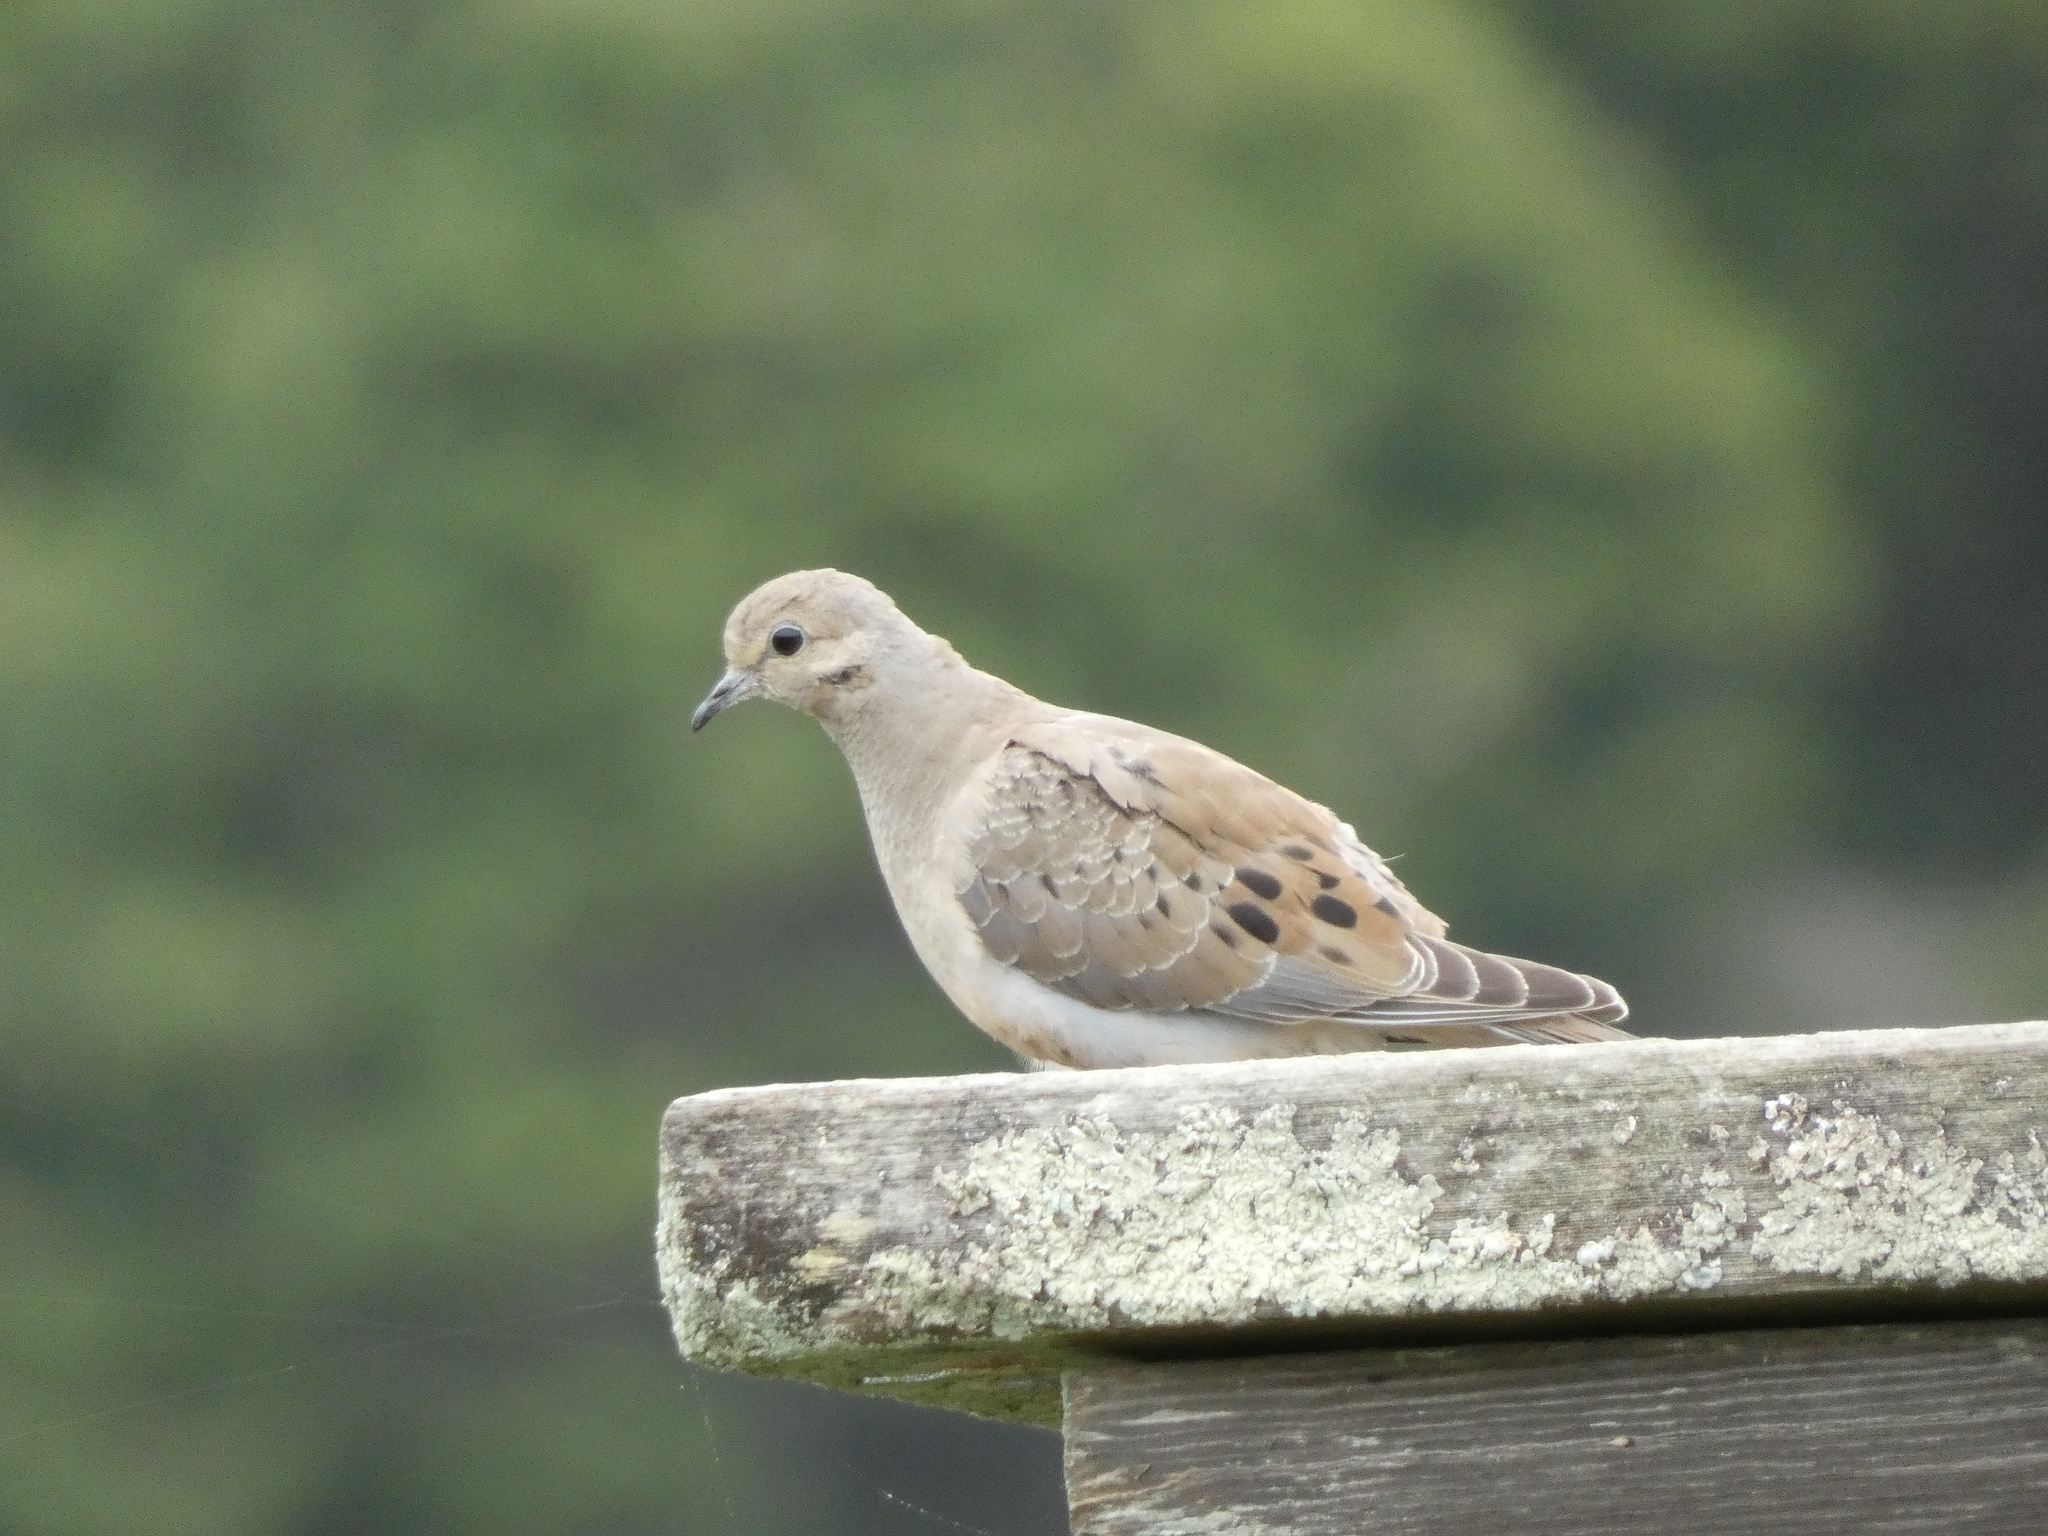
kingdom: Animalia
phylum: Chordata
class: Aves
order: Columbiformes
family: Columbidae
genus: Zenaida
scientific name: Zenaida macroura
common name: Mourning dove
